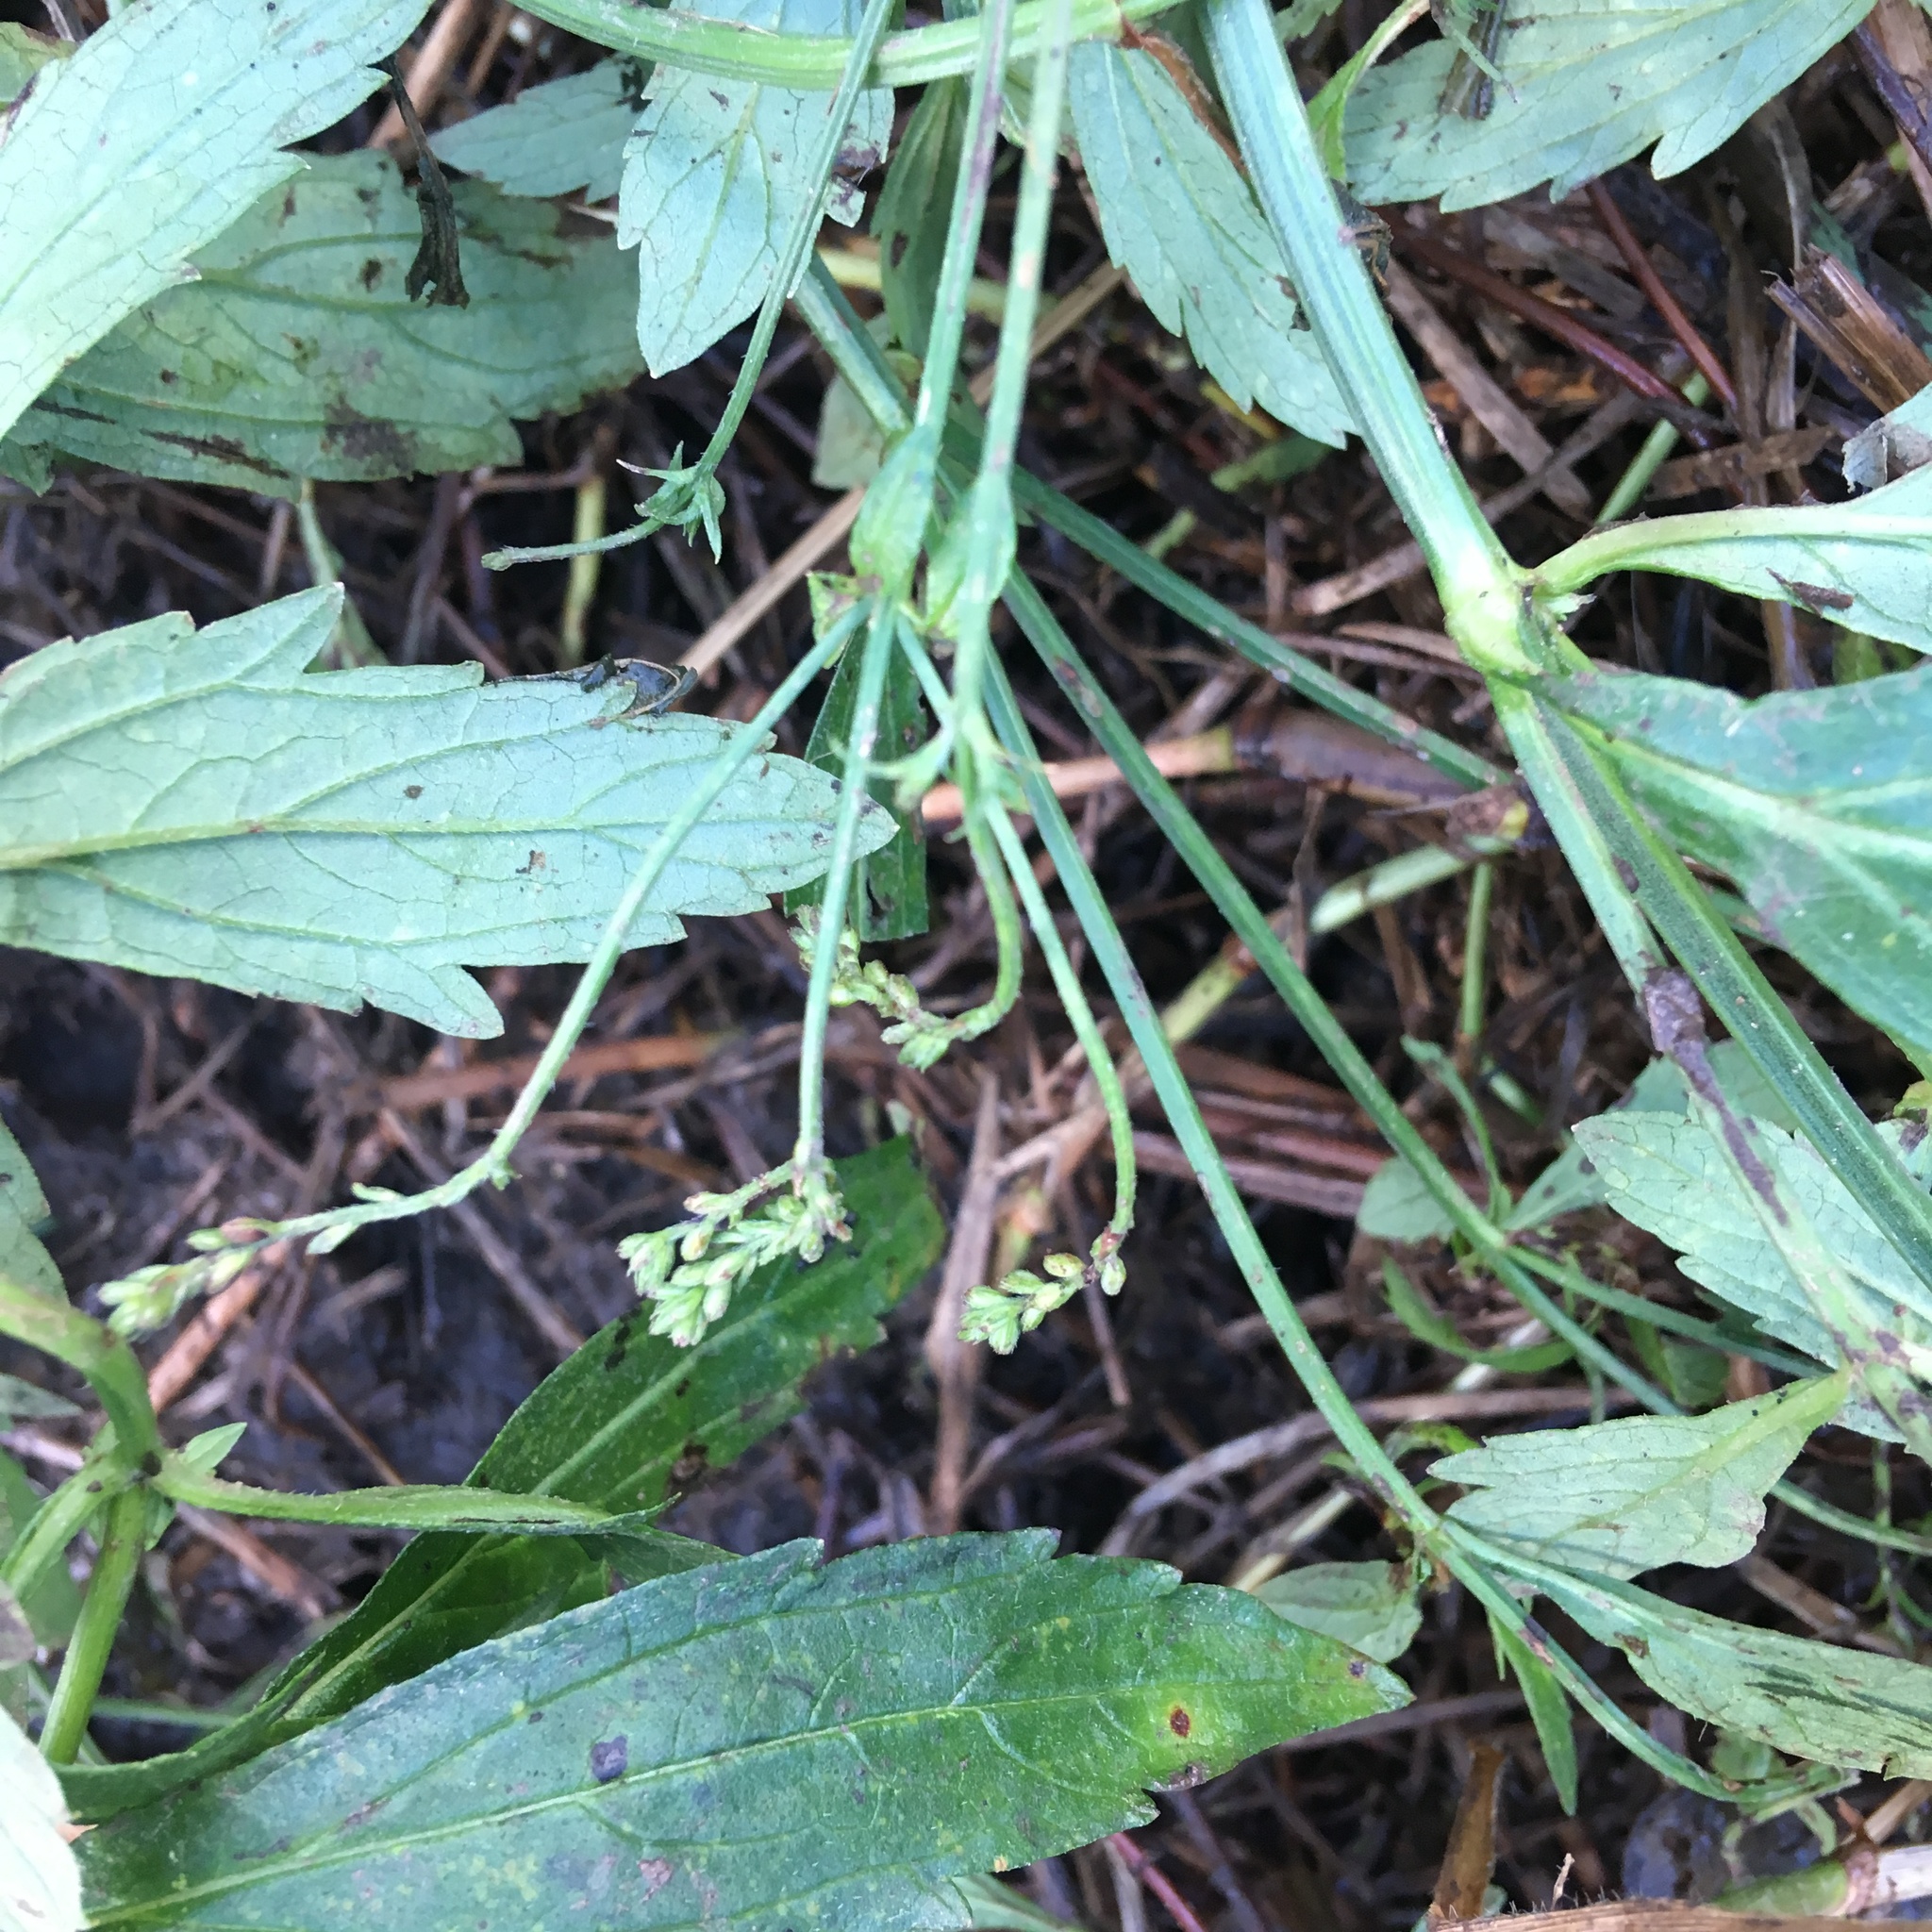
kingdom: Plantae
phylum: Tracheophyta
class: Magnoliopsida
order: Lamiales
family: Verbenaceae
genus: Verbena
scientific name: Verbena litoralis
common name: Seashore vervain
